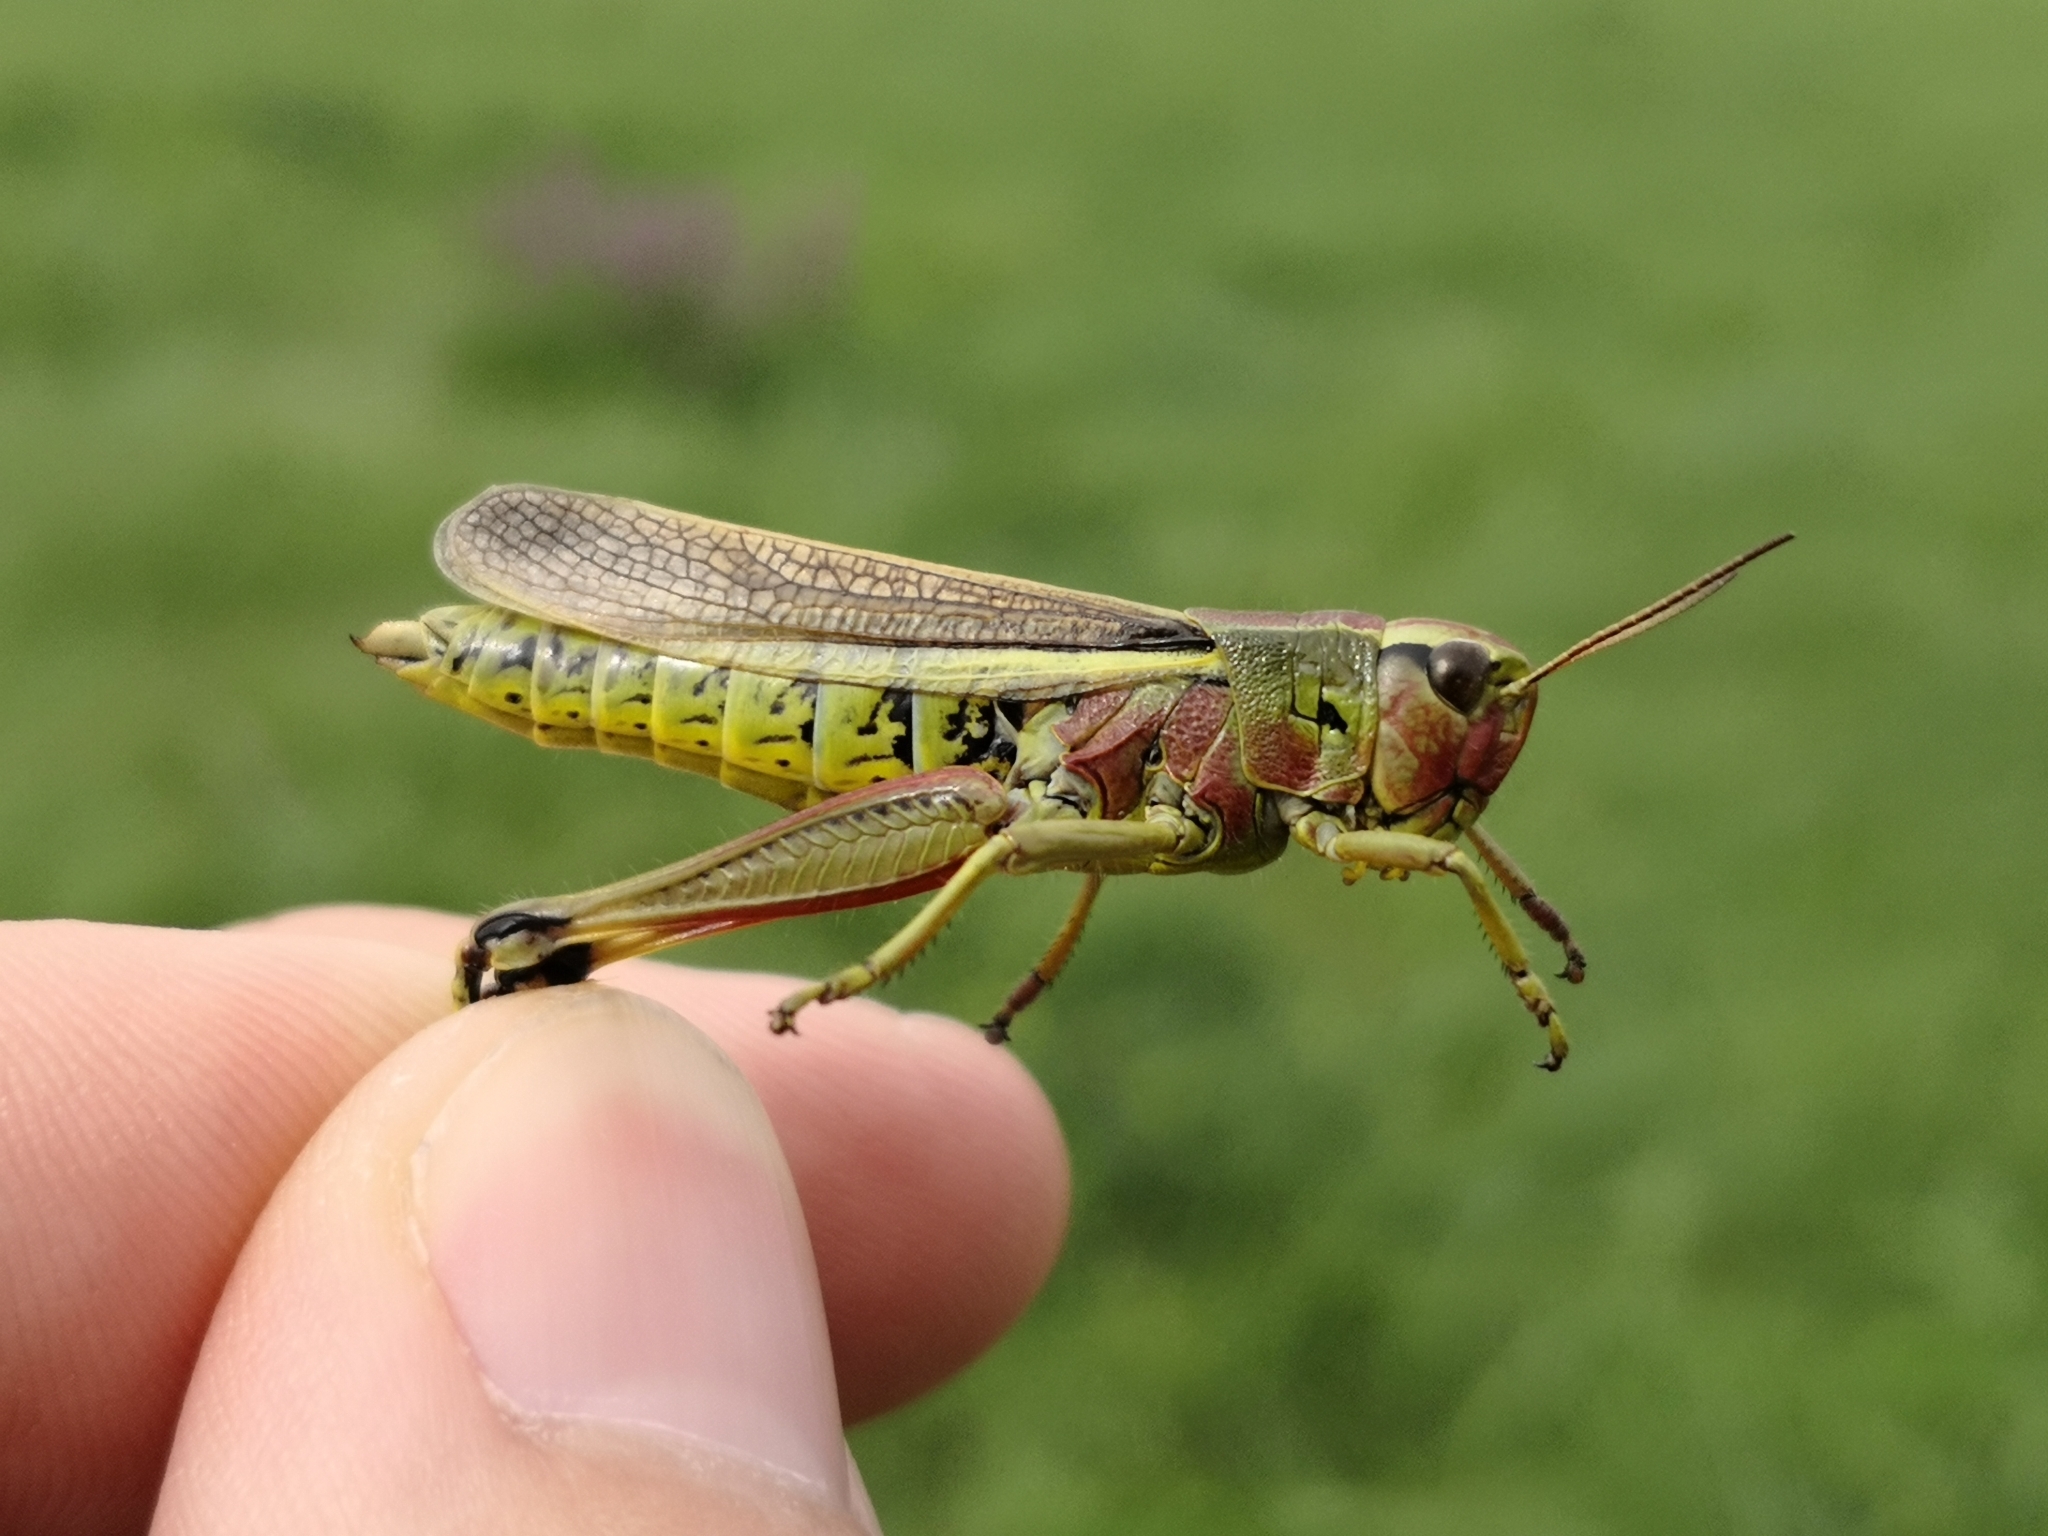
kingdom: Animalia
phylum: Arthropoda
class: Insecta
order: Orthoptera
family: Acrididae
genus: Stethophyma
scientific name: Stethophyma grossum
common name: Large marsh grasshopper
